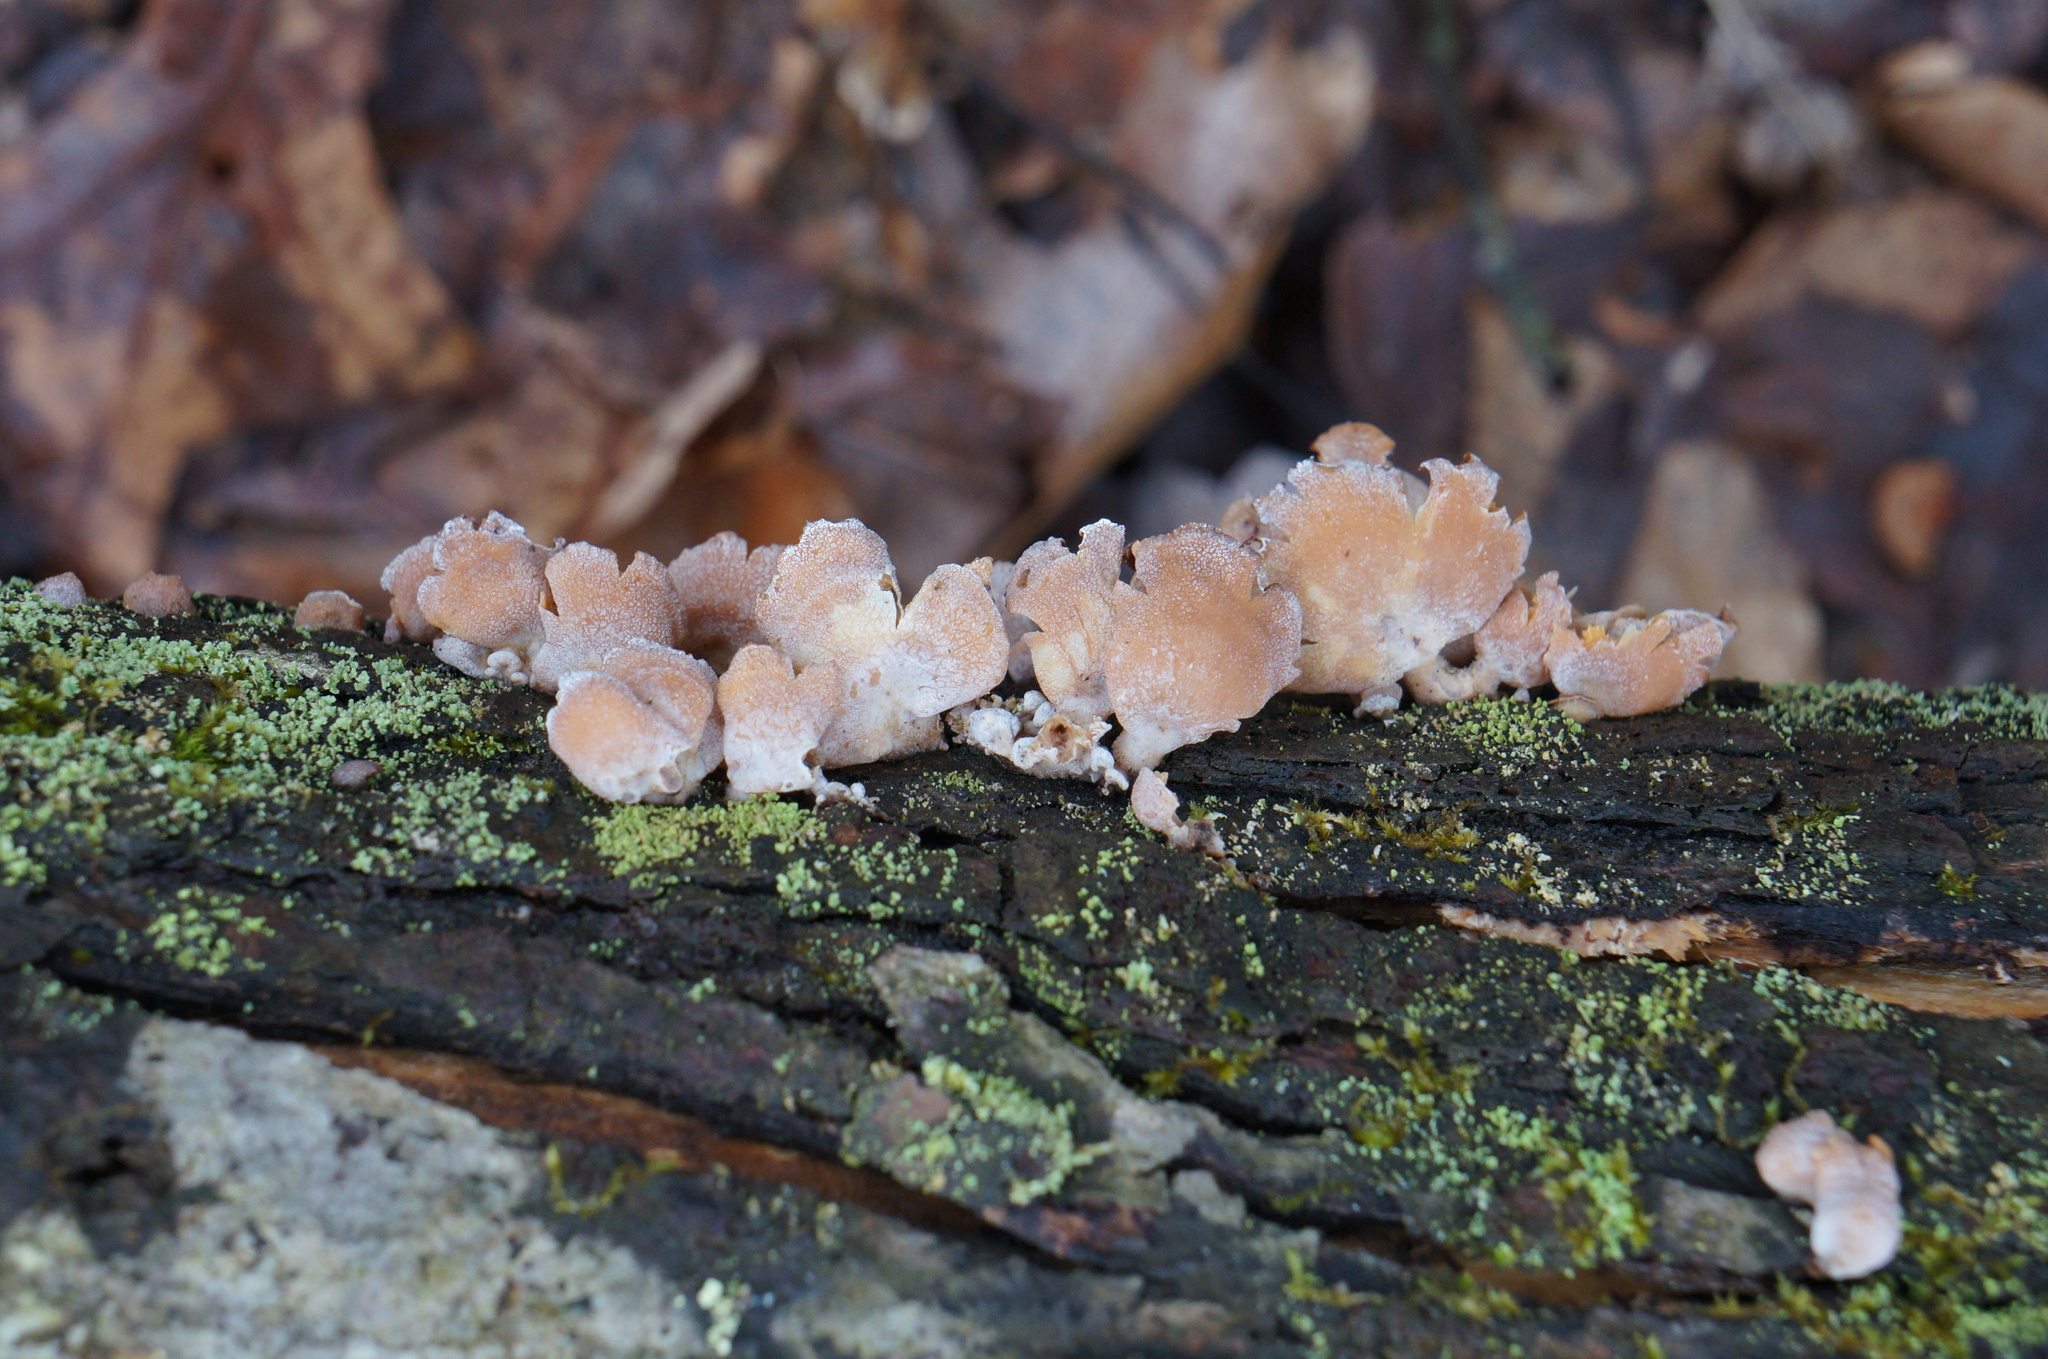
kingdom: Fungi
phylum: Basidiomycota
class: Agaricomycetes
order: Agaricales
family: Mycenaceae
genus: Panellus
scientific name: Panellus stipticus
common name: Bitter oysterling
